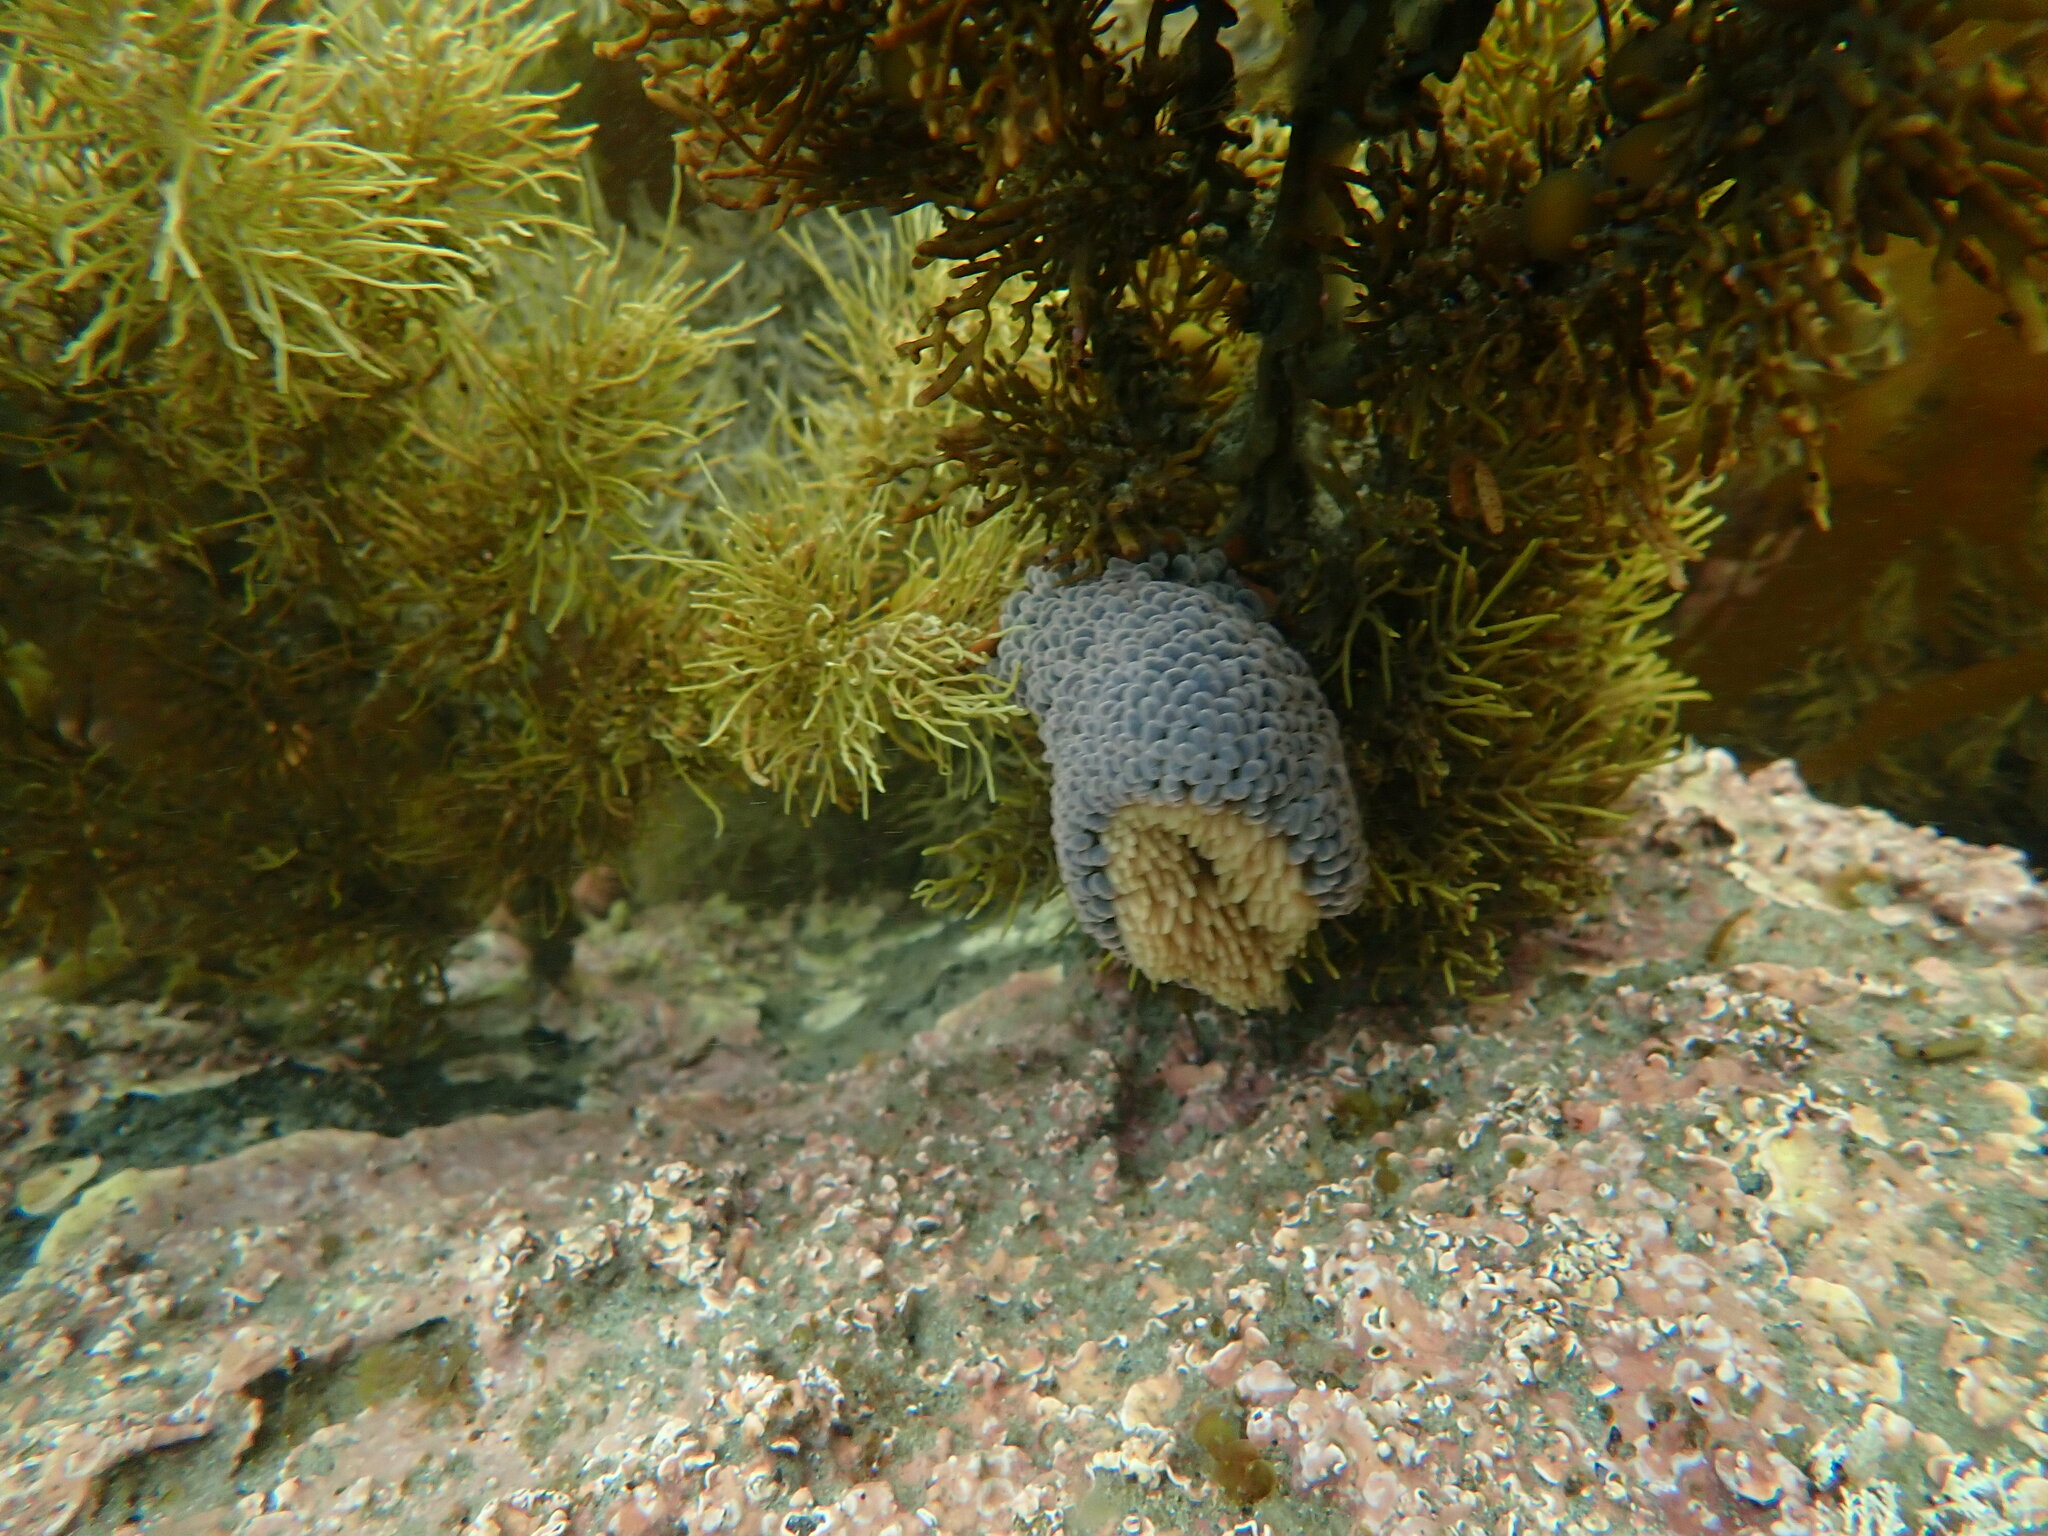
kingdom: Animalia
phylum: Cnidaria
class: Anthozoa
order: Actiniaria
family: Actiniidae
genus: Phlyctenactis
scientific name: Phlyctenactis tuberculosa
